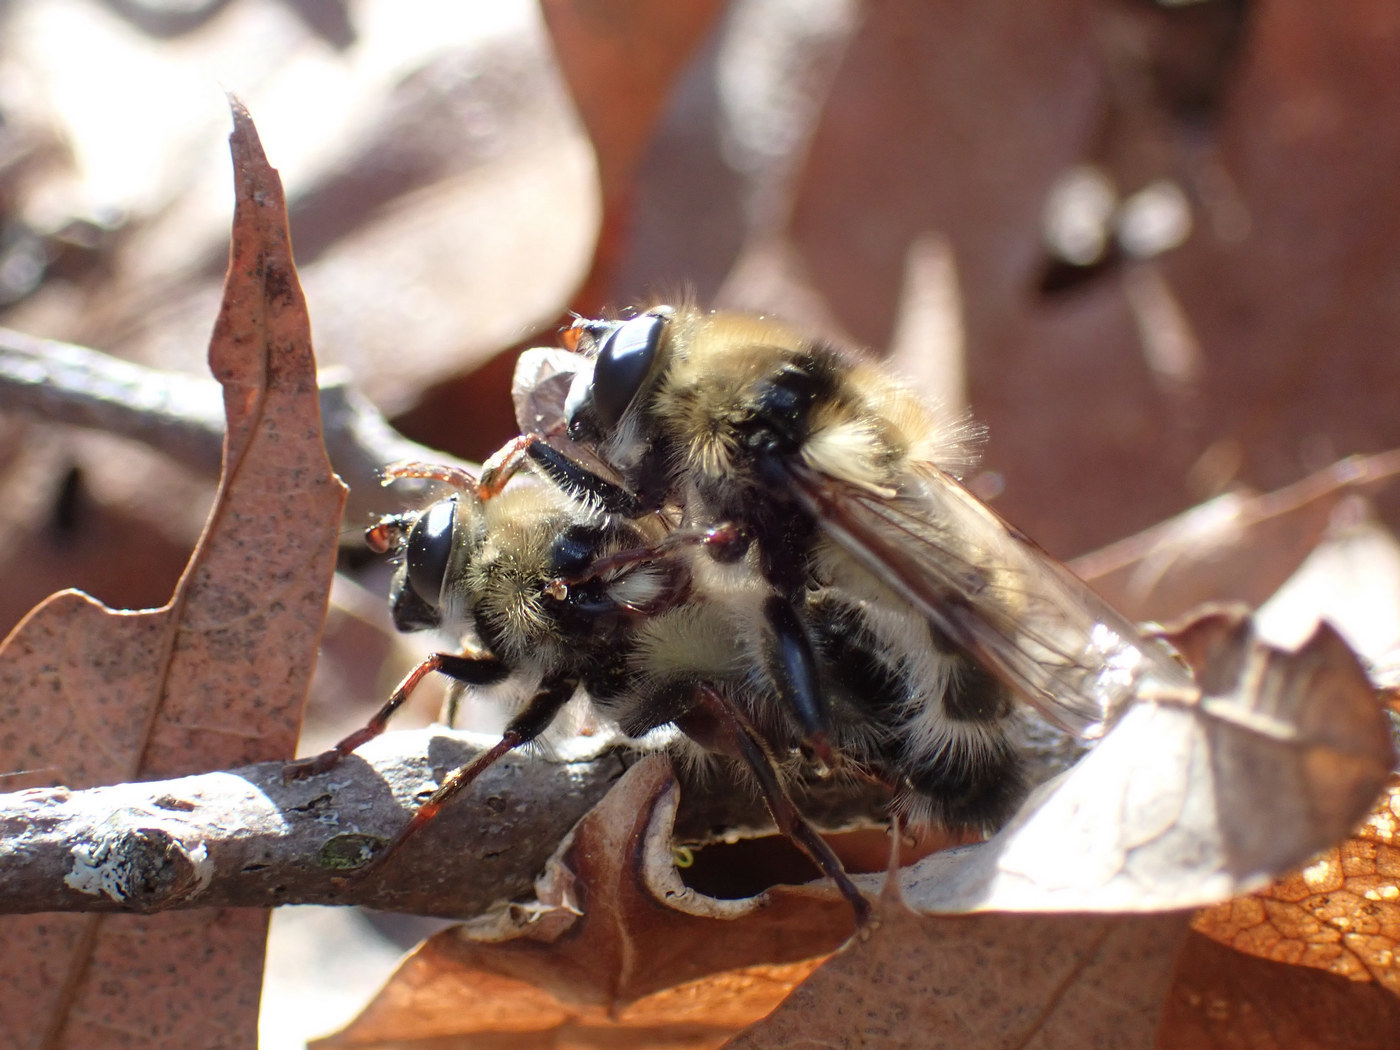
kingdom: Animalia
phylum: Arthropoda
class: Insecta
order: Diptera
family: Syrphidae
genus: Criorhina
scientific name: Criorhina verbosa
